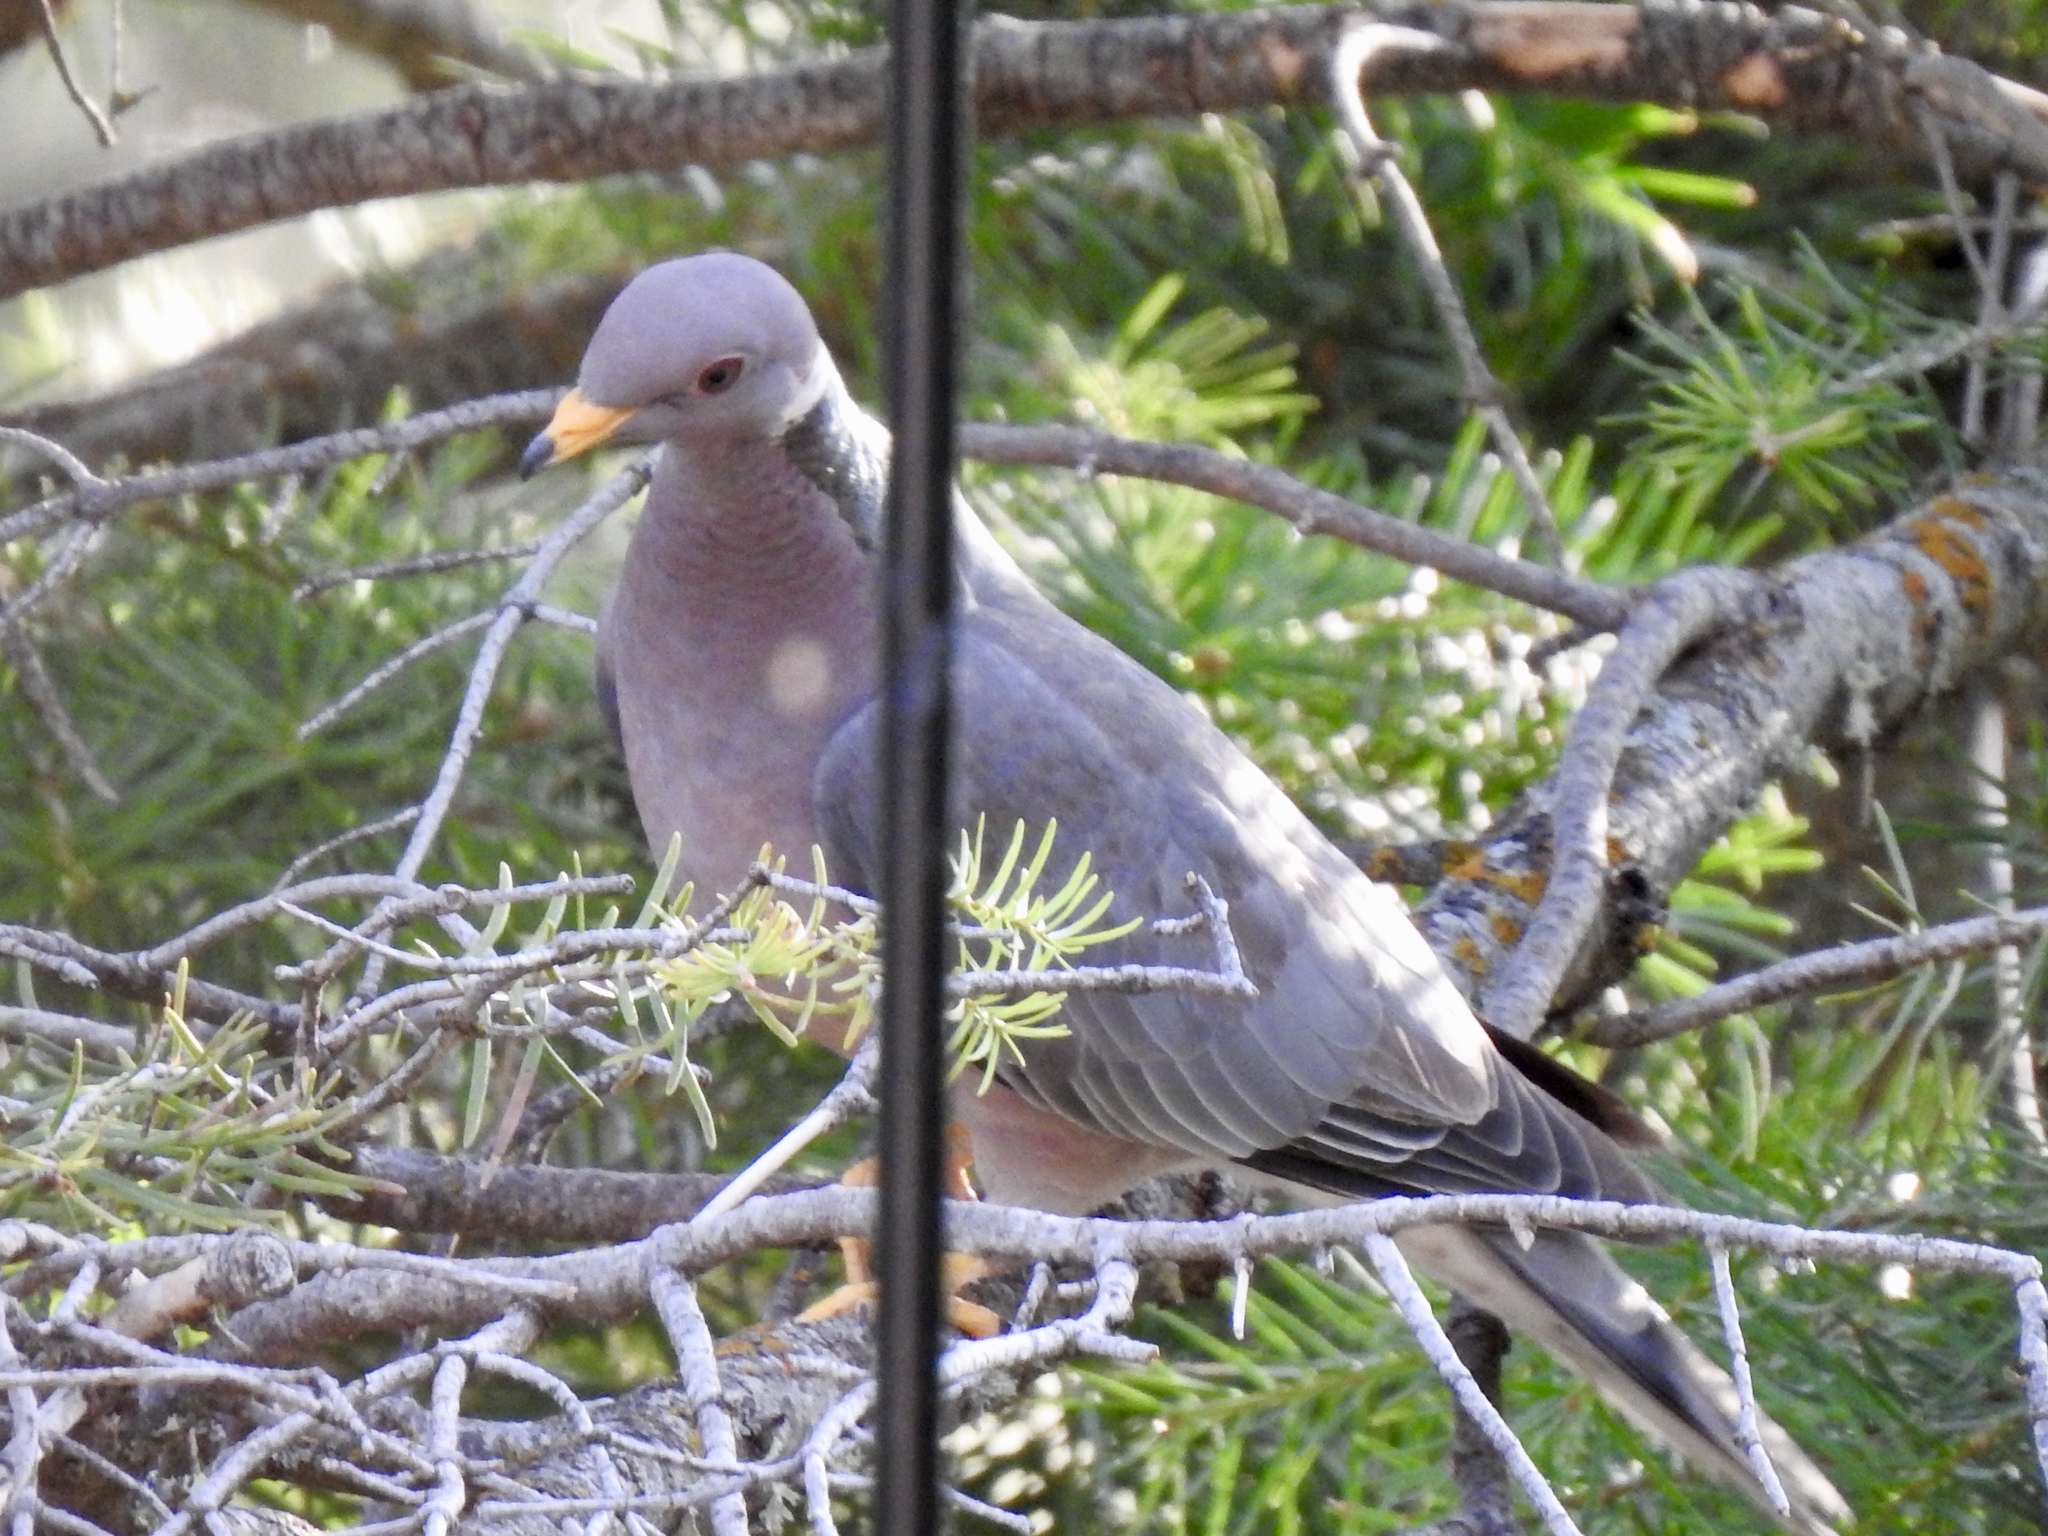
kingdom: Animalia
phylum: Chordata
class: Aves
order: Columbiformes
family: Columbidae
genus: Patagioenas
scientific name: Patagioenas fasciata
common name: Band-tailed pigeon
